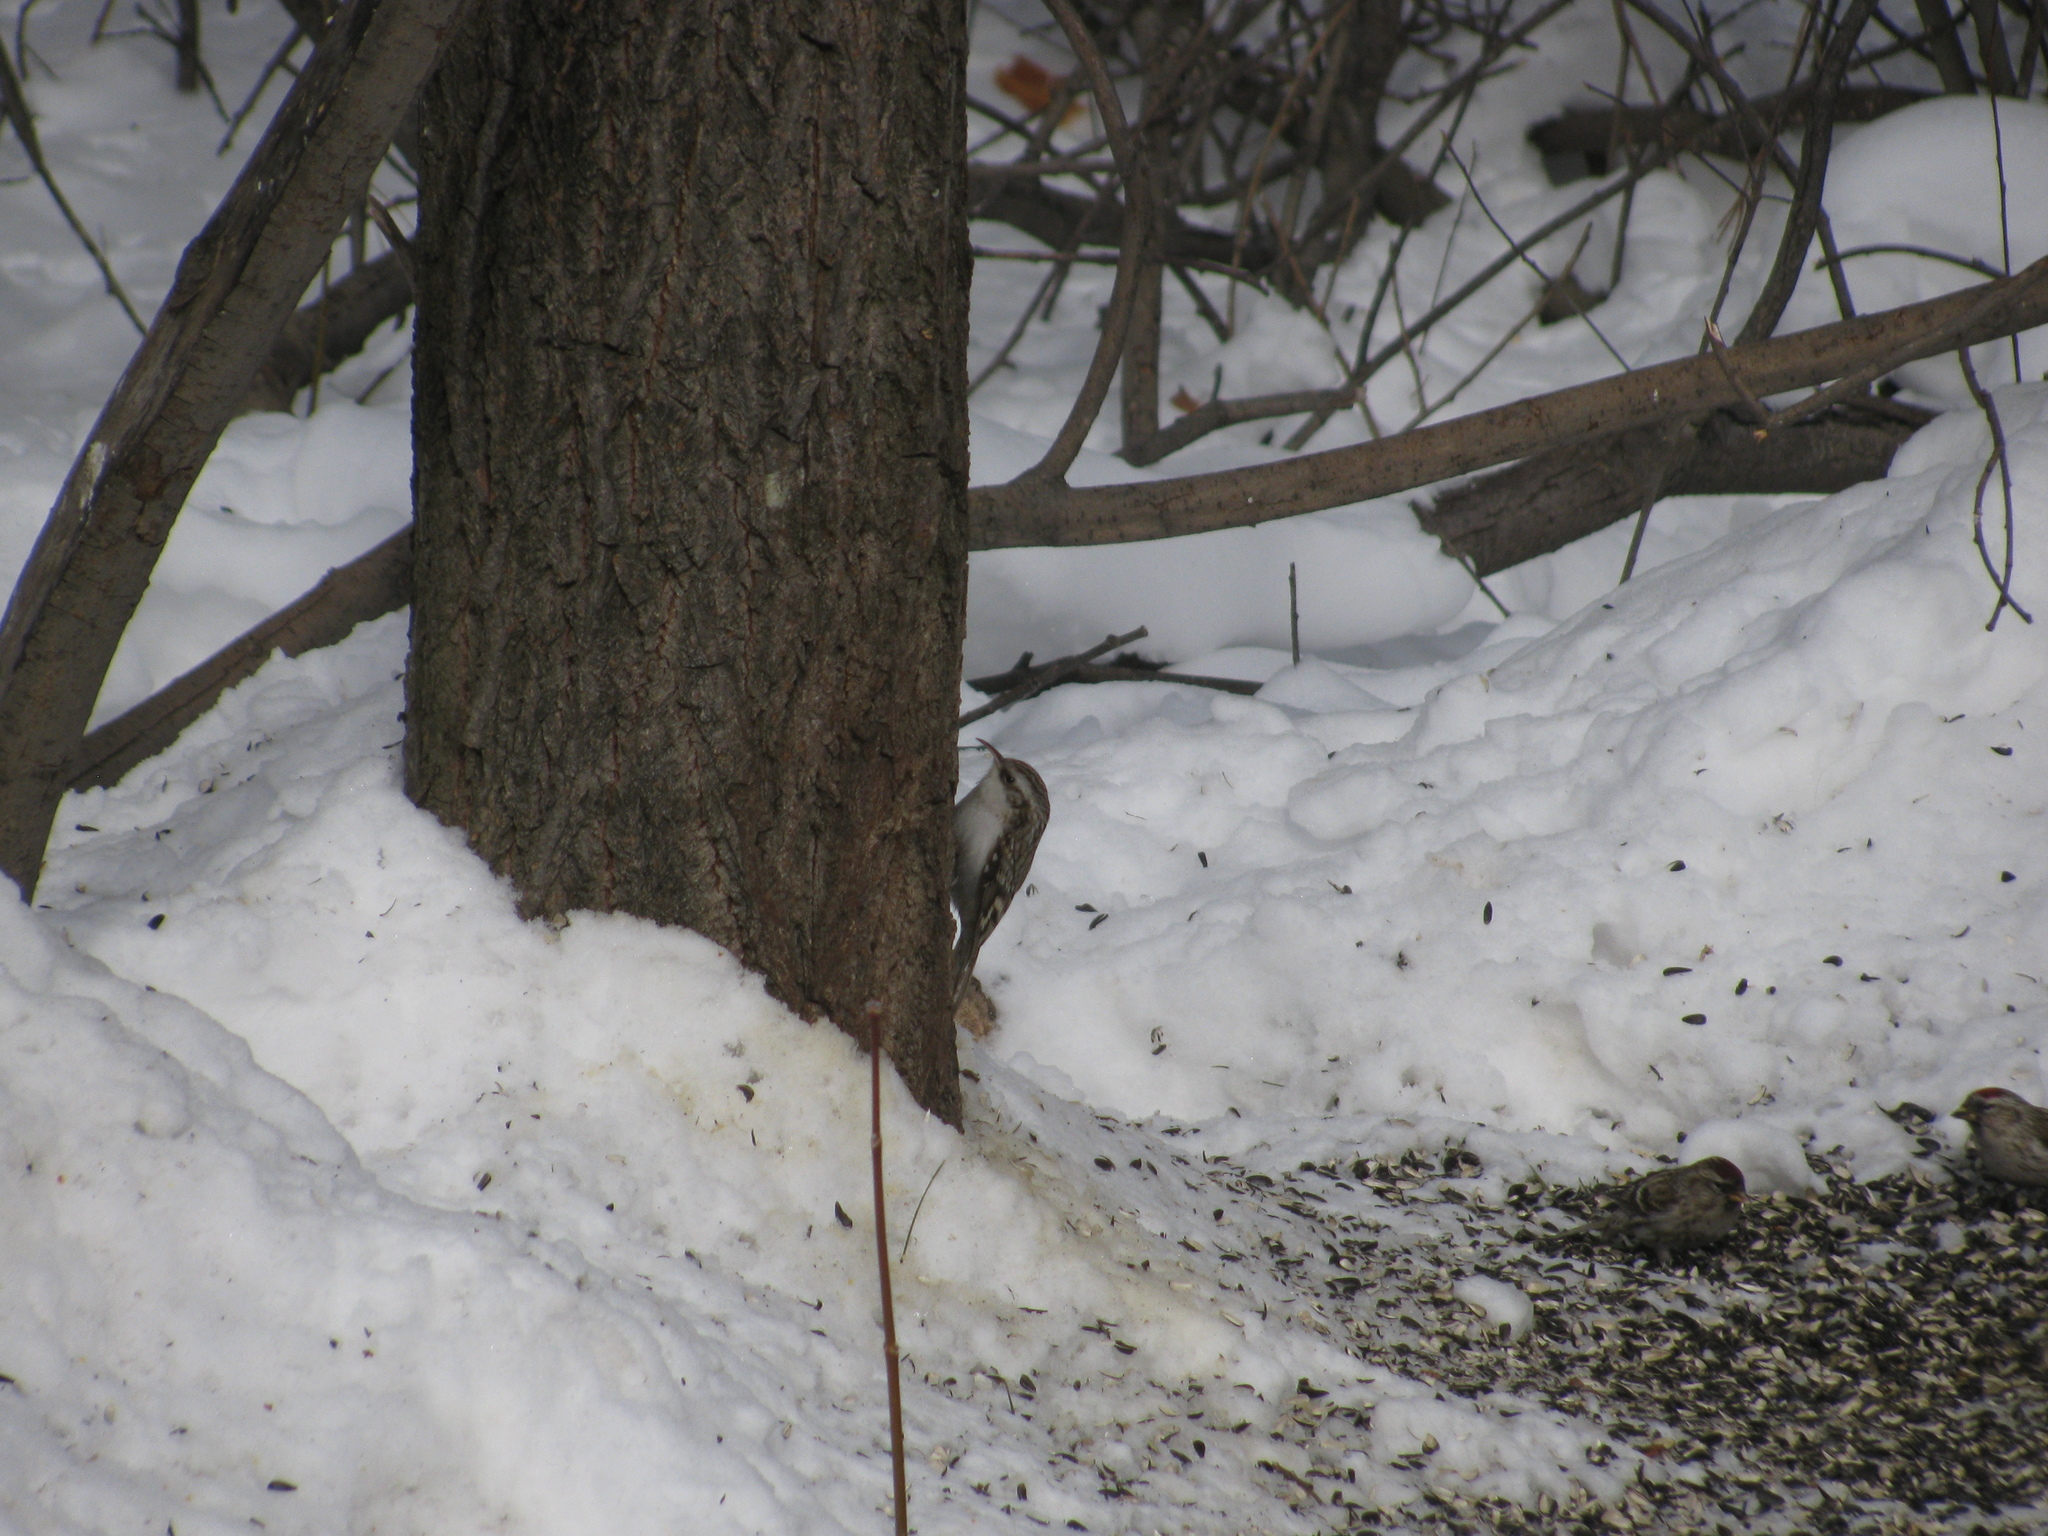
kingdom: Animalia
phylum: Chordata
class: Aves
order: Passeriformes
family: Certhiidae
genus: Certhia
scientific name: Certhia familiaris
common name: Eurasian treecreeper
